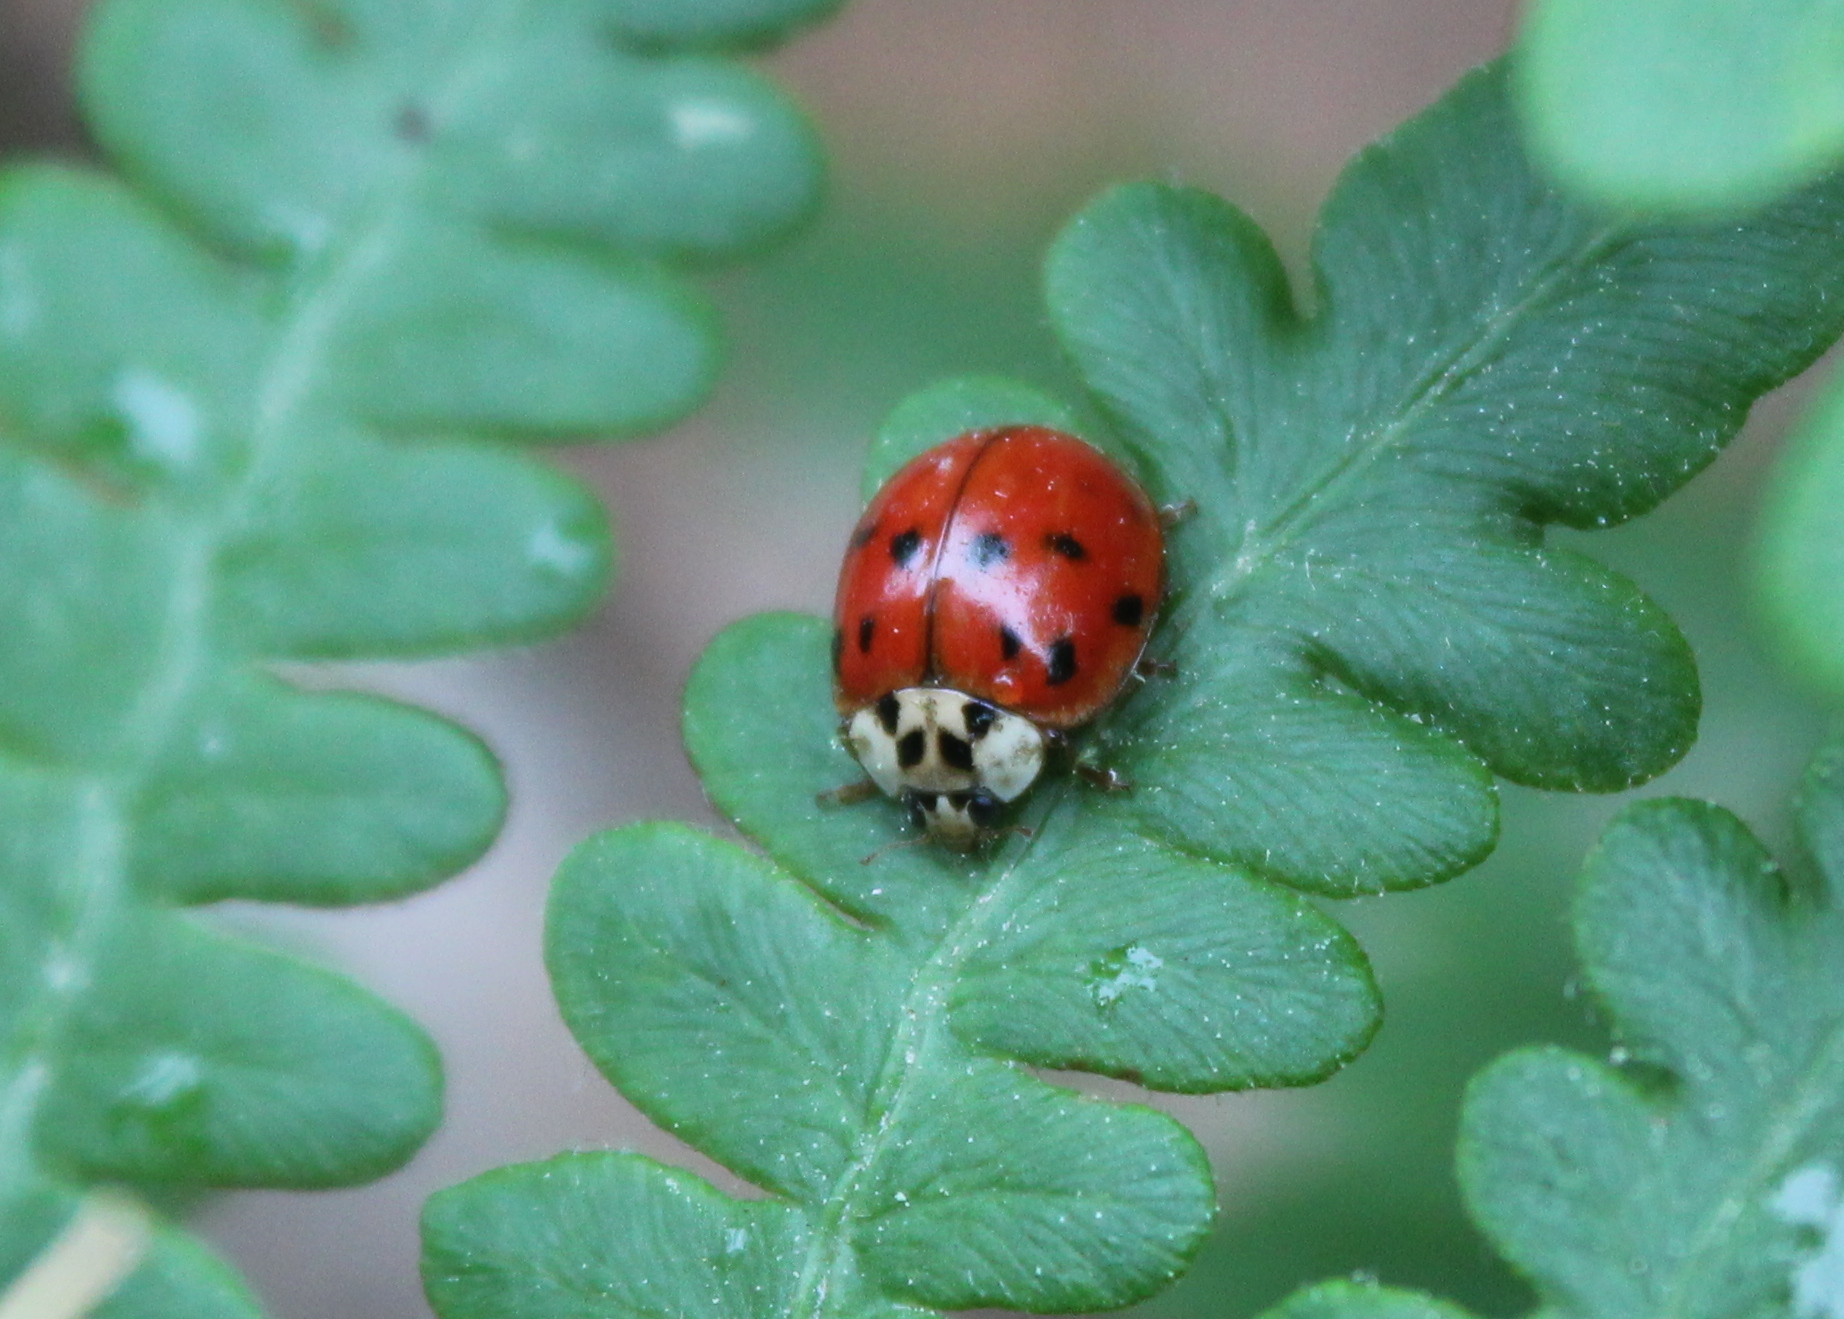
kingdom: Animalia
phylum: Arthropoda
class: Insecta
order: Coleoptera
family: Coccinellidae
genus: Harmonia
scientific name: Harmonia axyridis
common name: Harlequin ladybird
